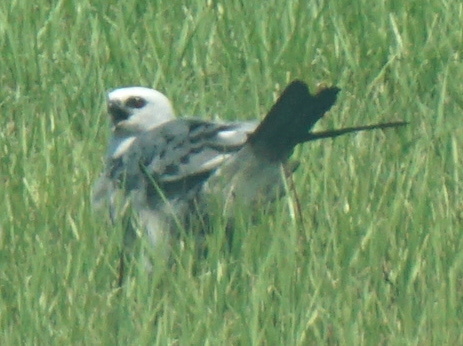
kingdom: Animalia
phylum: Chordata
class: Aves
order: Accipitriformes
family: Accipitridae
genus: Ictinia
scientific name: Ictinia mississippiensis
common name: Mississippi kite
